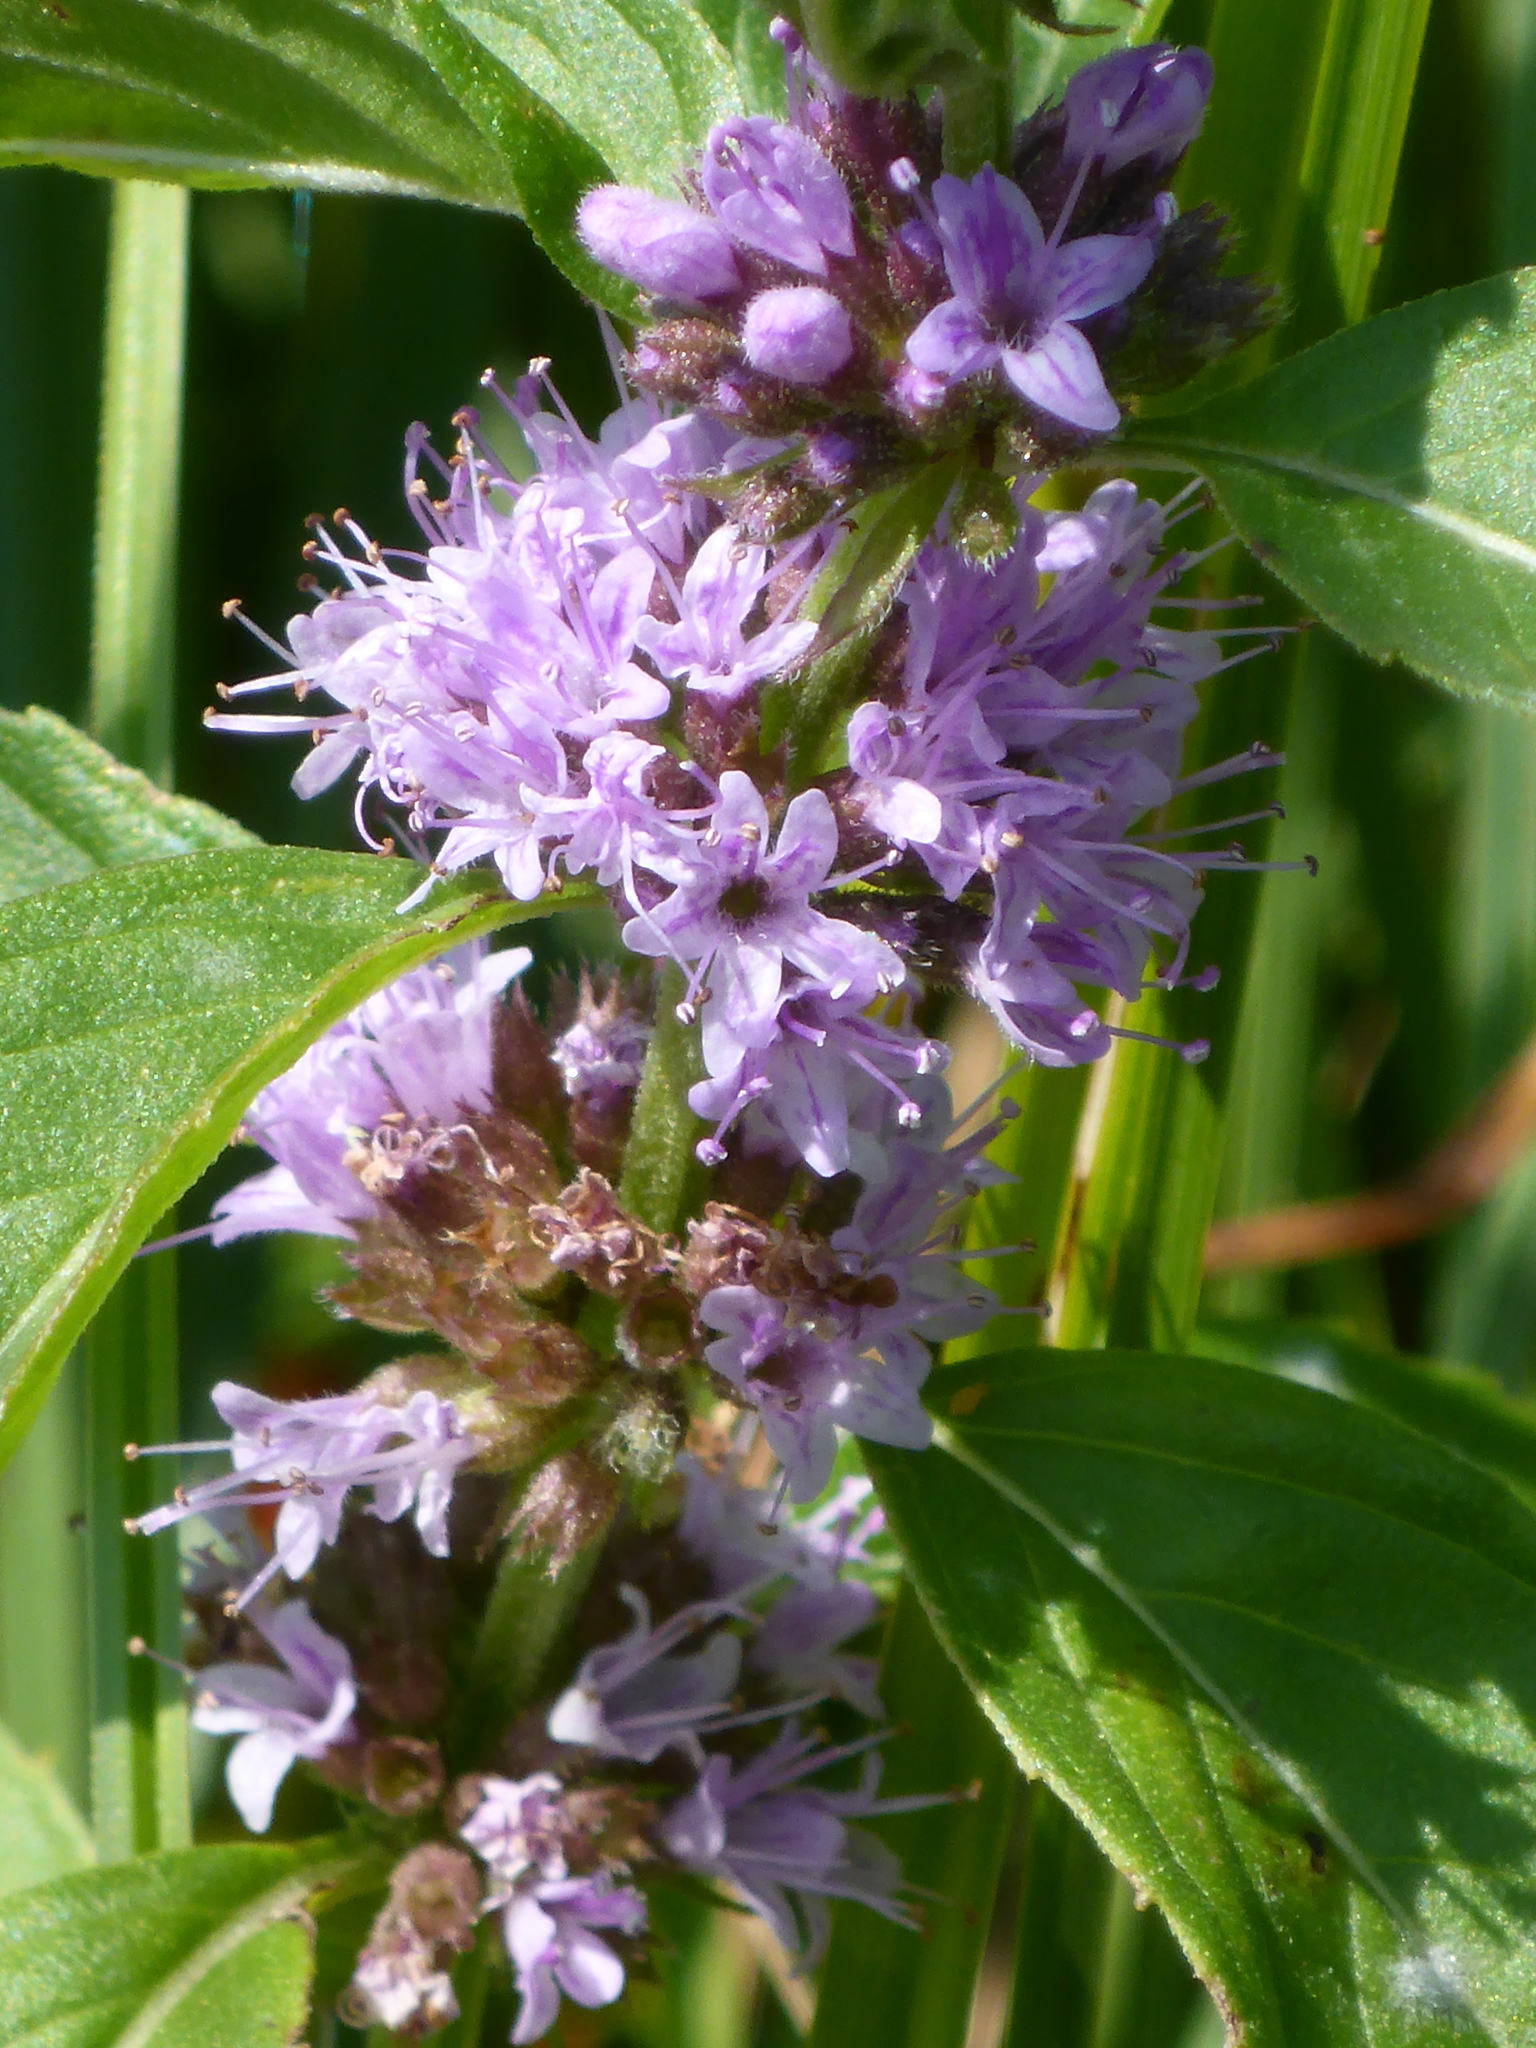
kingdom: Plantae
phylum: Tracheophyta
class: Magnoliopsida
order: Lamiales
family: Lamiaceae
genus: Mentha
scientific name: Mentha canadensis
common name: American corn mint
